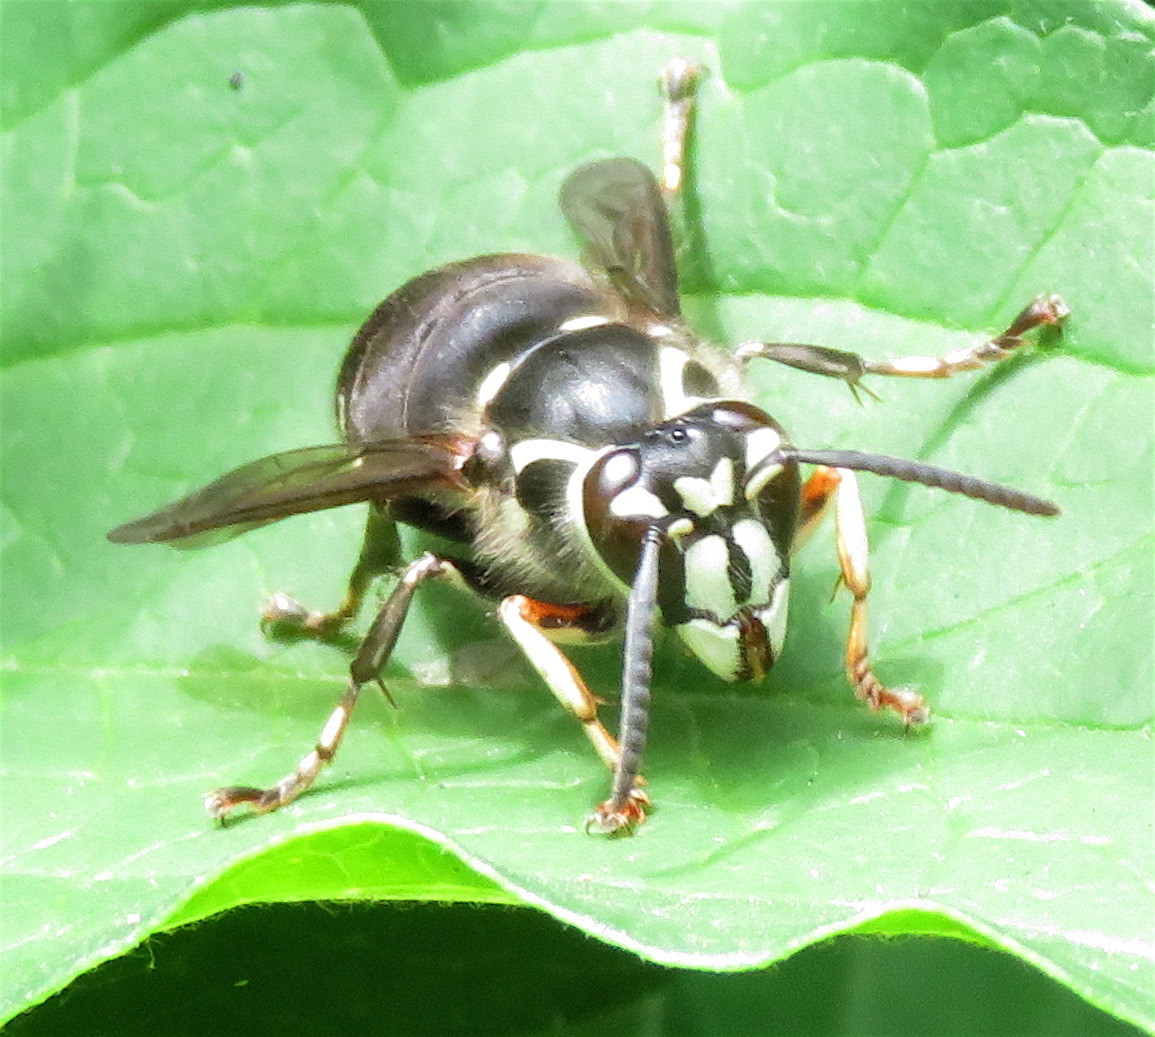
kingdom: Animalia
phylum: Arthropoda
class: Insecta
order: Hymenoptera
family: Vespidae
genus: Dolichovespula
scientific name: Dolichovespula maculata
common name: Bald-faced hornet
